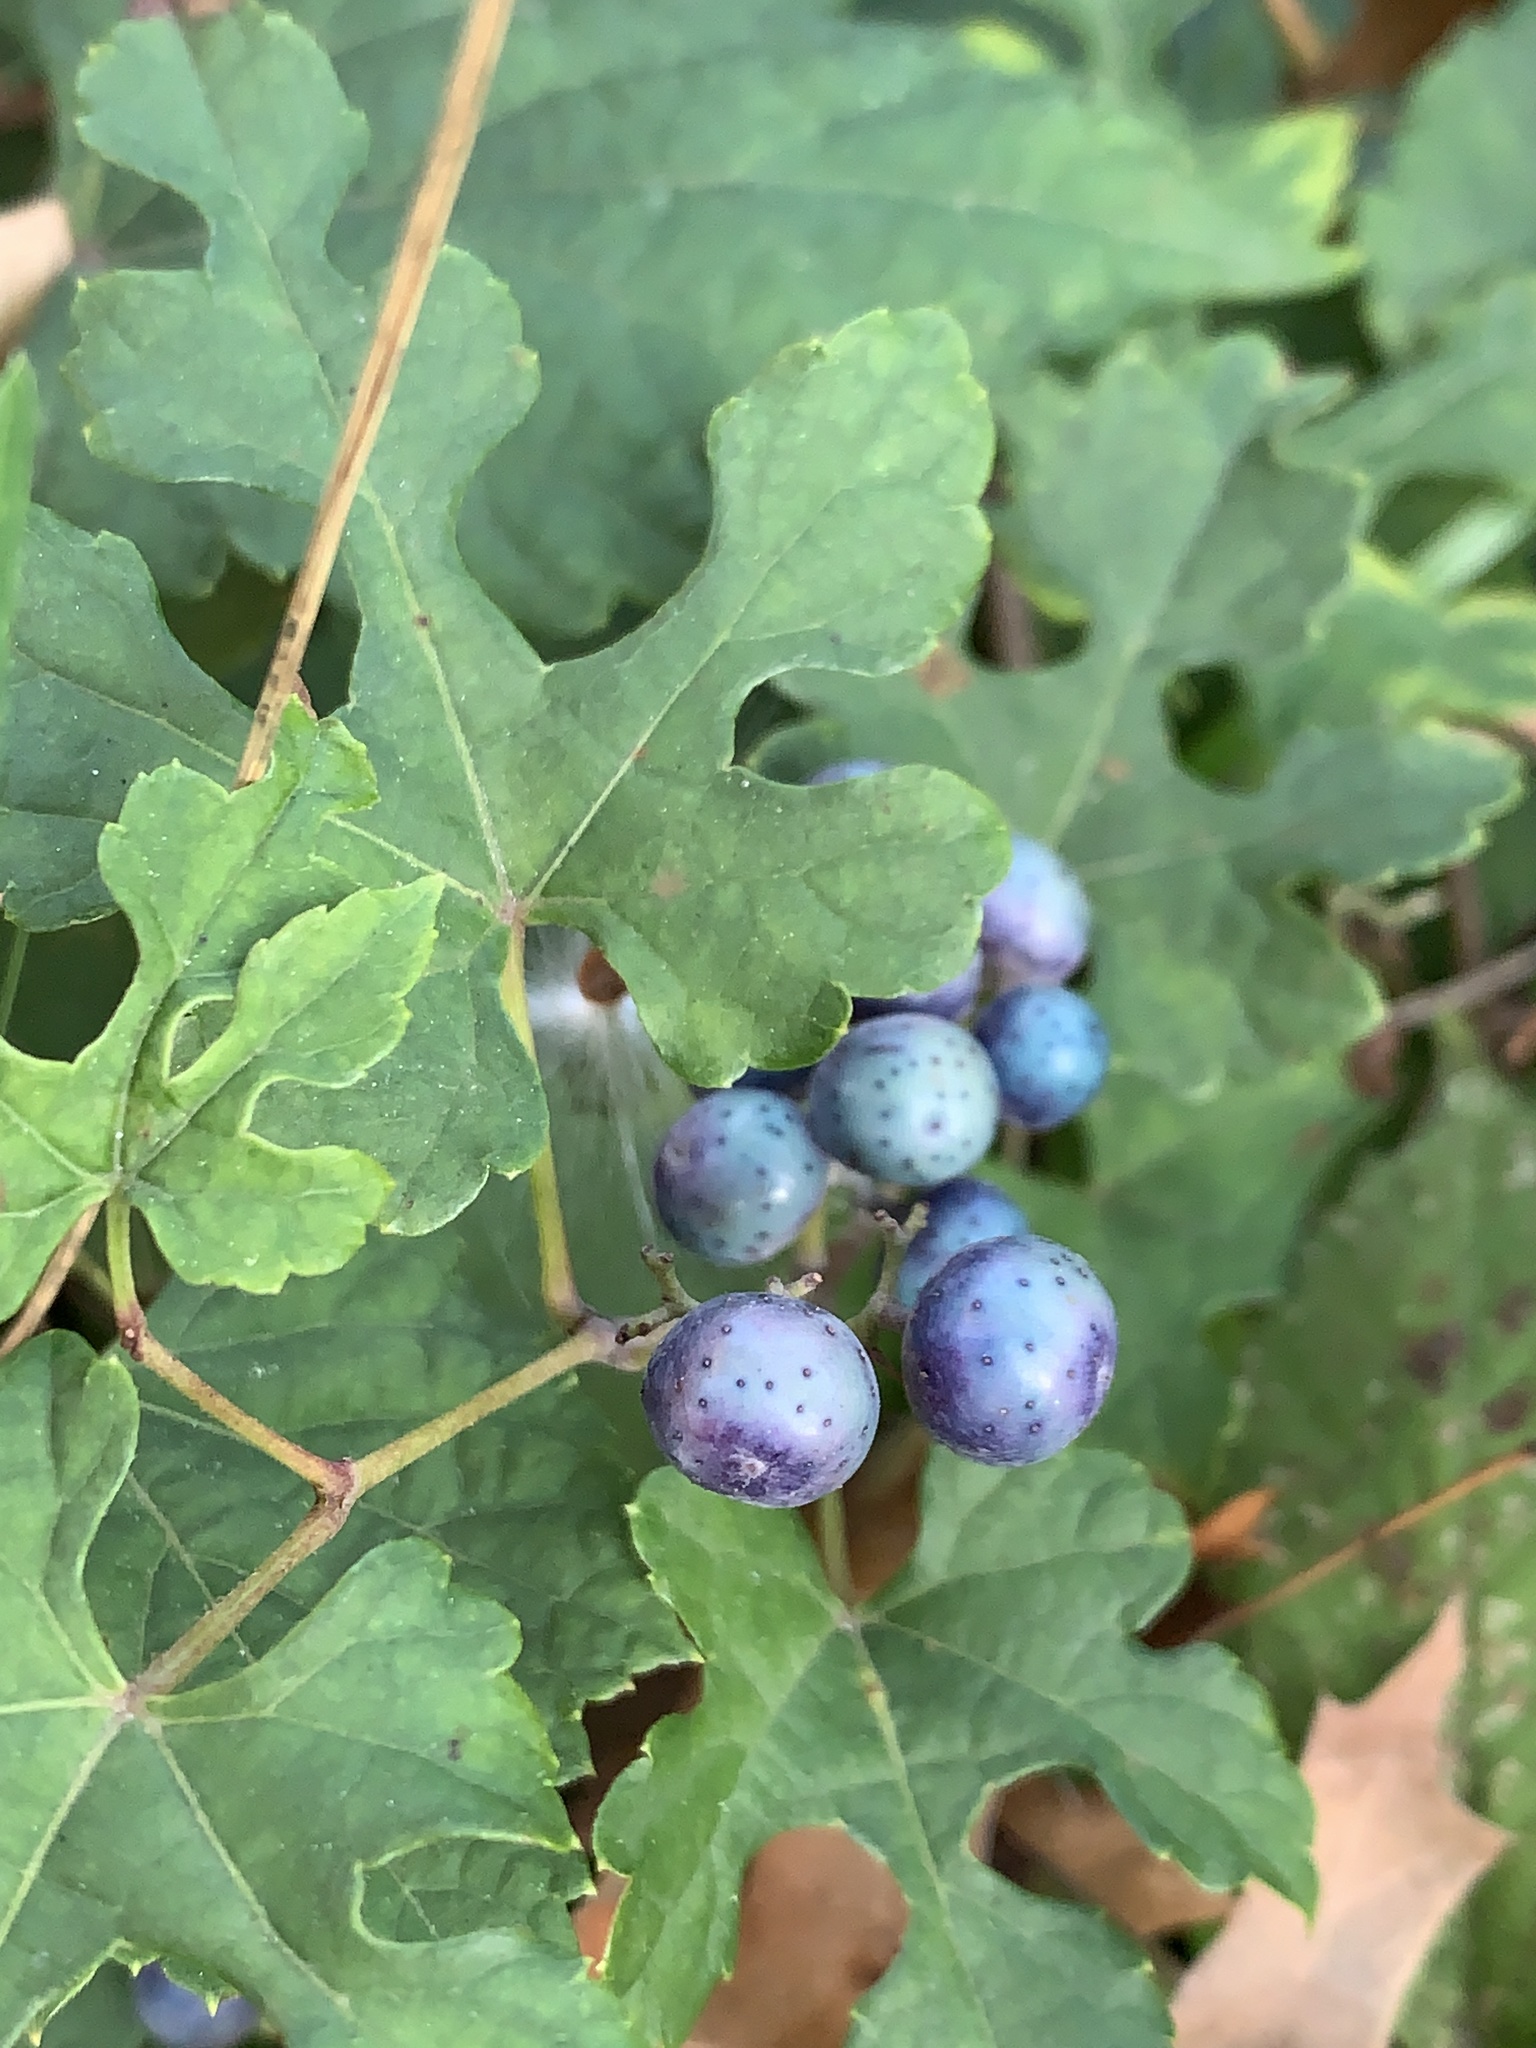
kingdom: Plantae
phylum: Tracheophyta
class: Magnoliopsida
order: Vitales
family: Vitaceae
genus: Ampelopsis
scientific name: Ampelopsis glandulosa
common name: Amur peppervine
